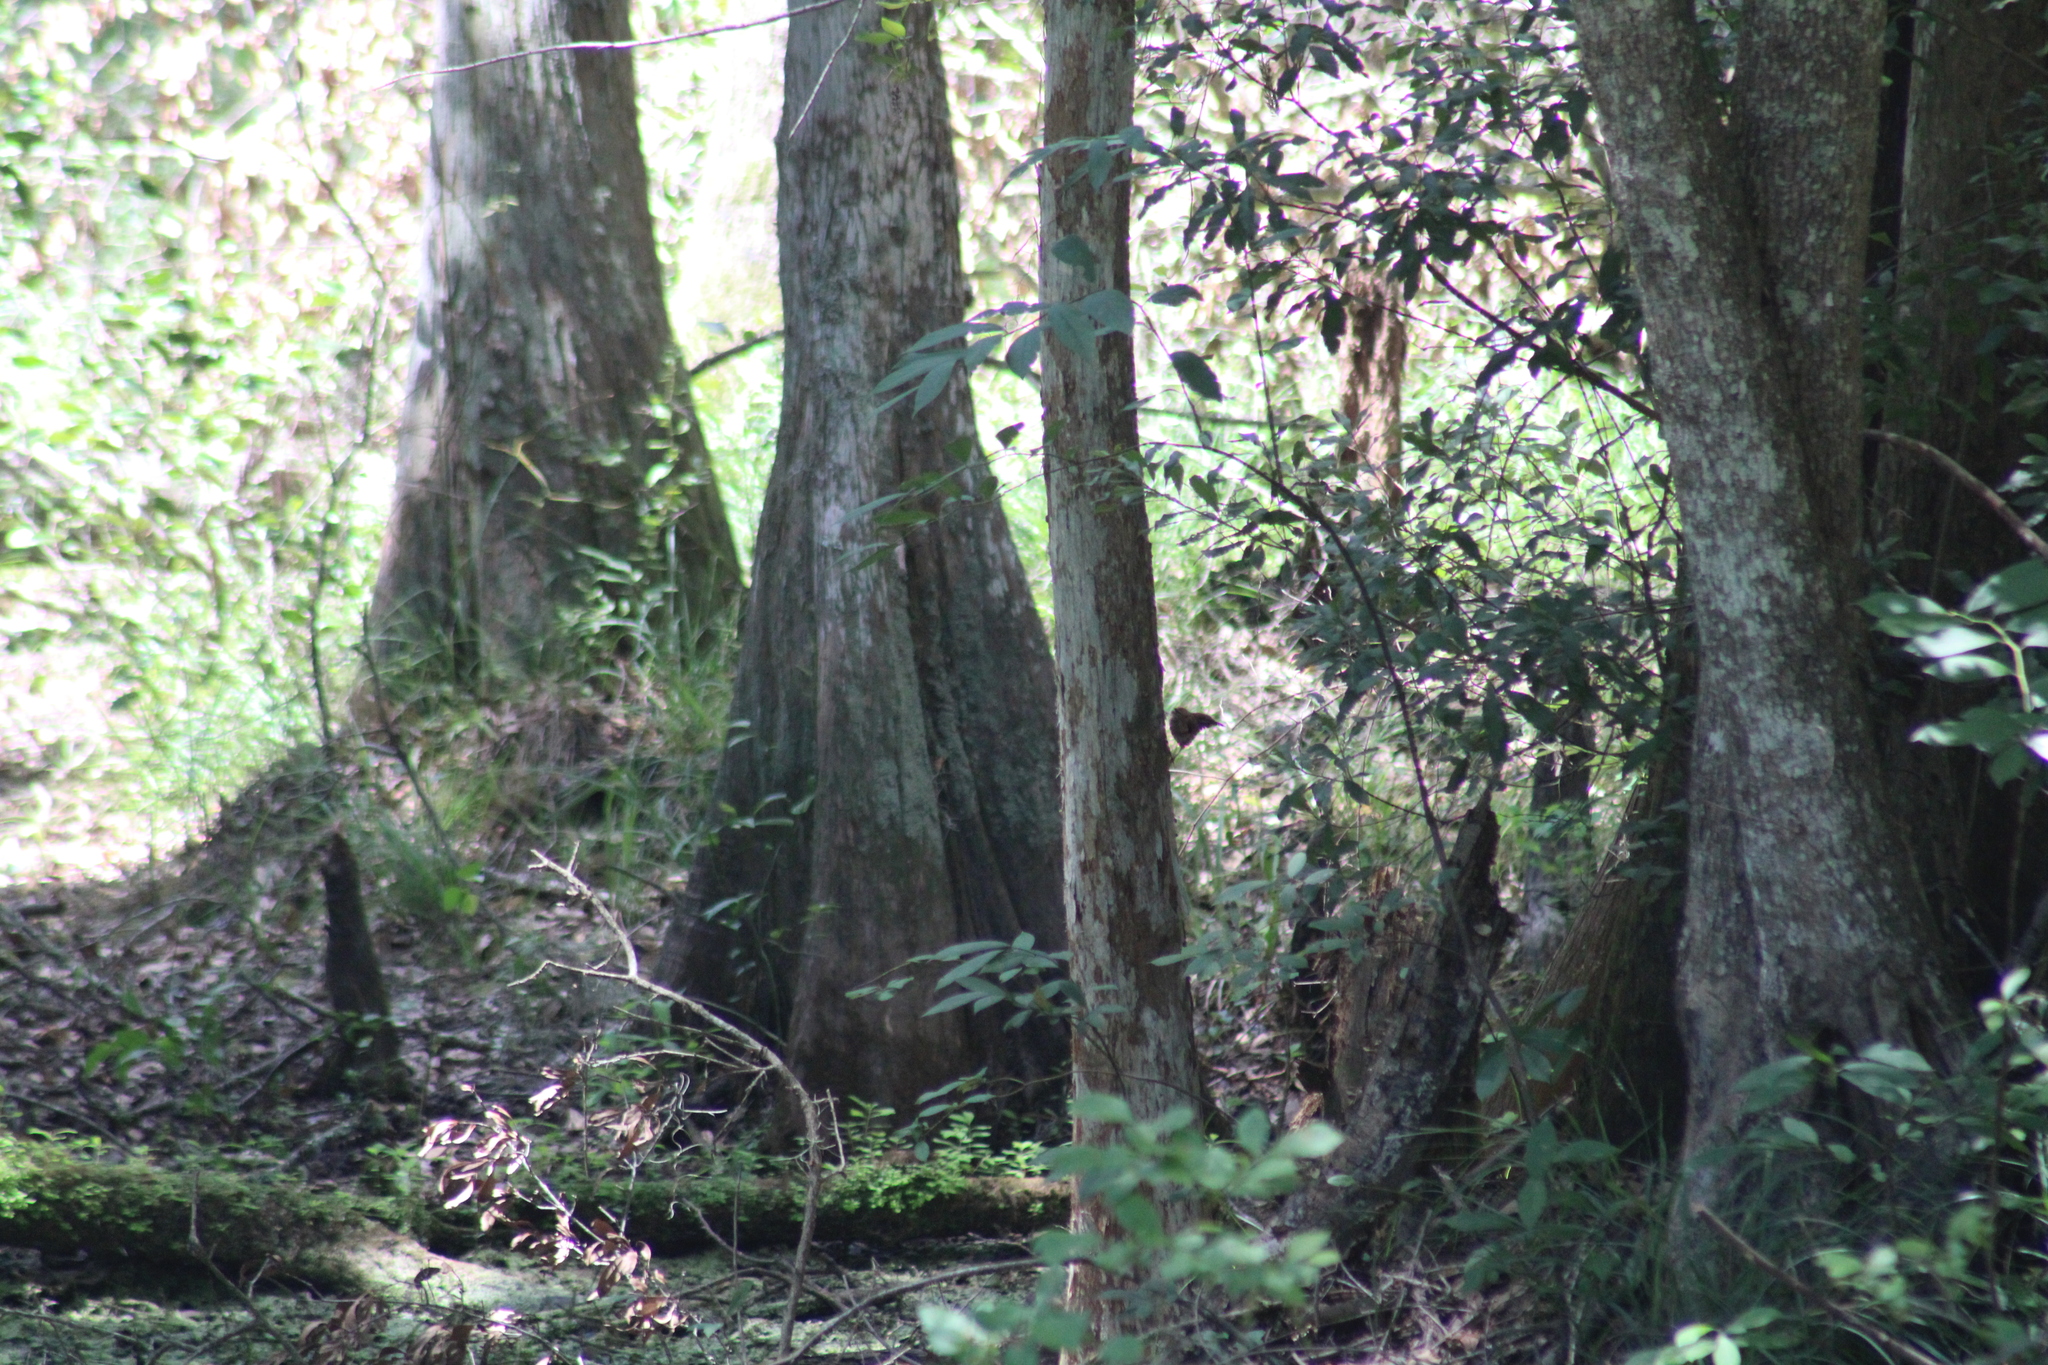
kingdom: Animalia
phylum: Chordata
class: Aves
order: Passeriformes
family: Troglodytidae
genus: Thryothorus
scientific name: Thryothorus ludovicianus
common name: Carolina wren
